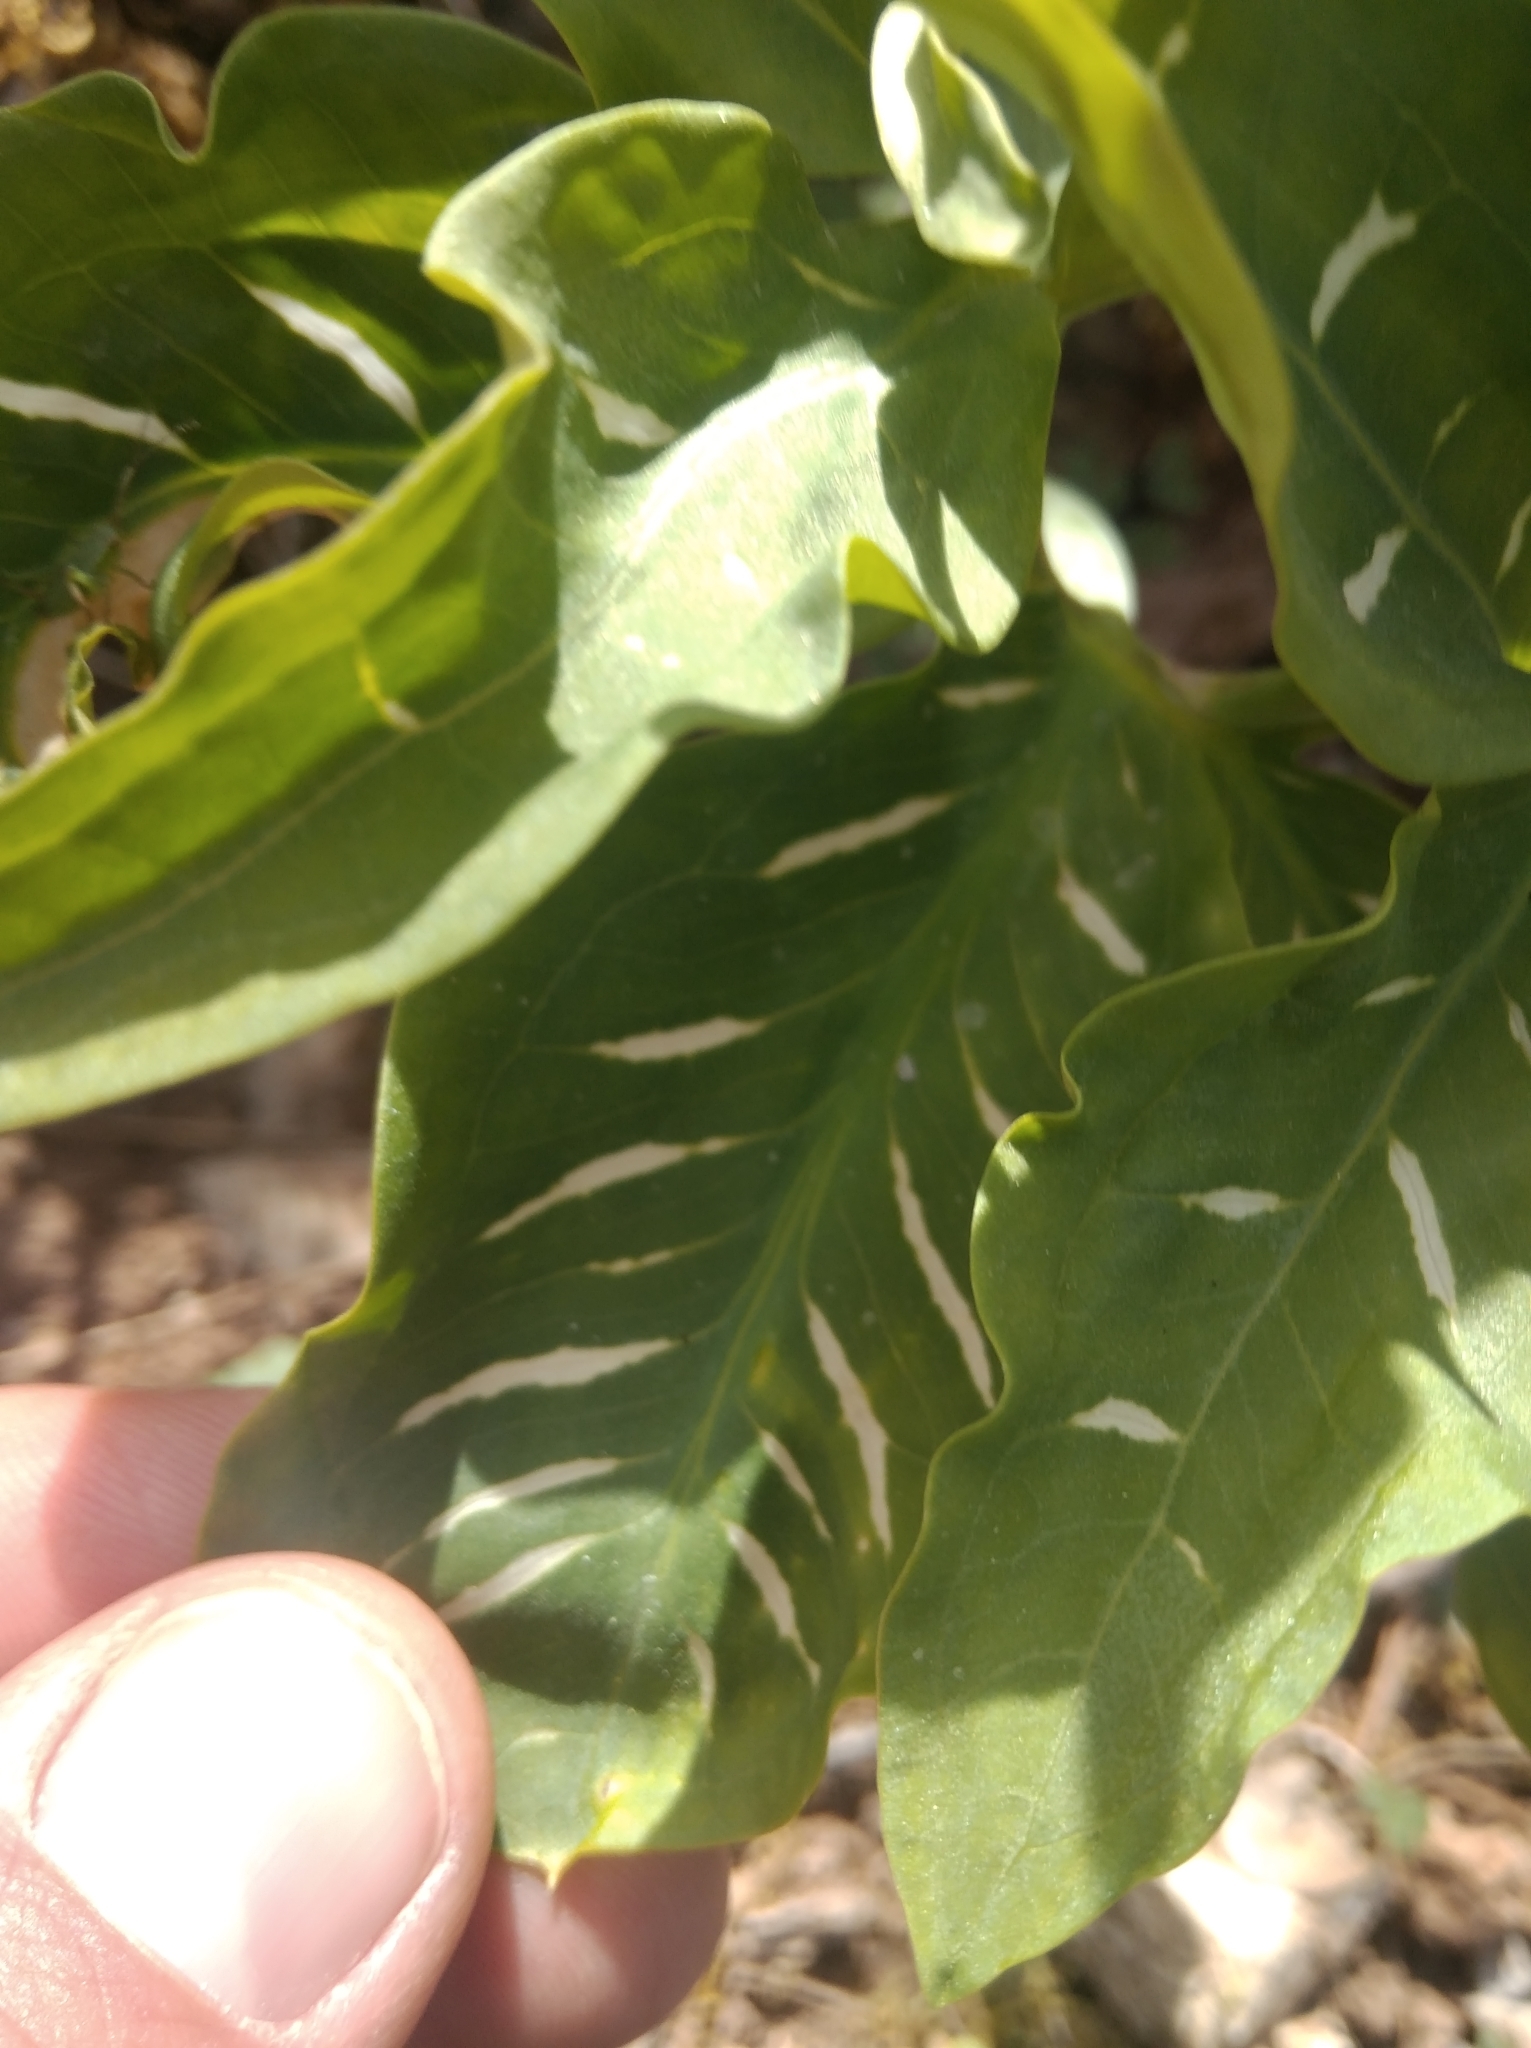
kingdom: Plantae
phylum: Tracheophyta
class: Liliopsida
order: Alismatales
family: Araceae
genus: Dracunculus
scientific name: Dracunculus vulgaris
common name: Dragon arum
